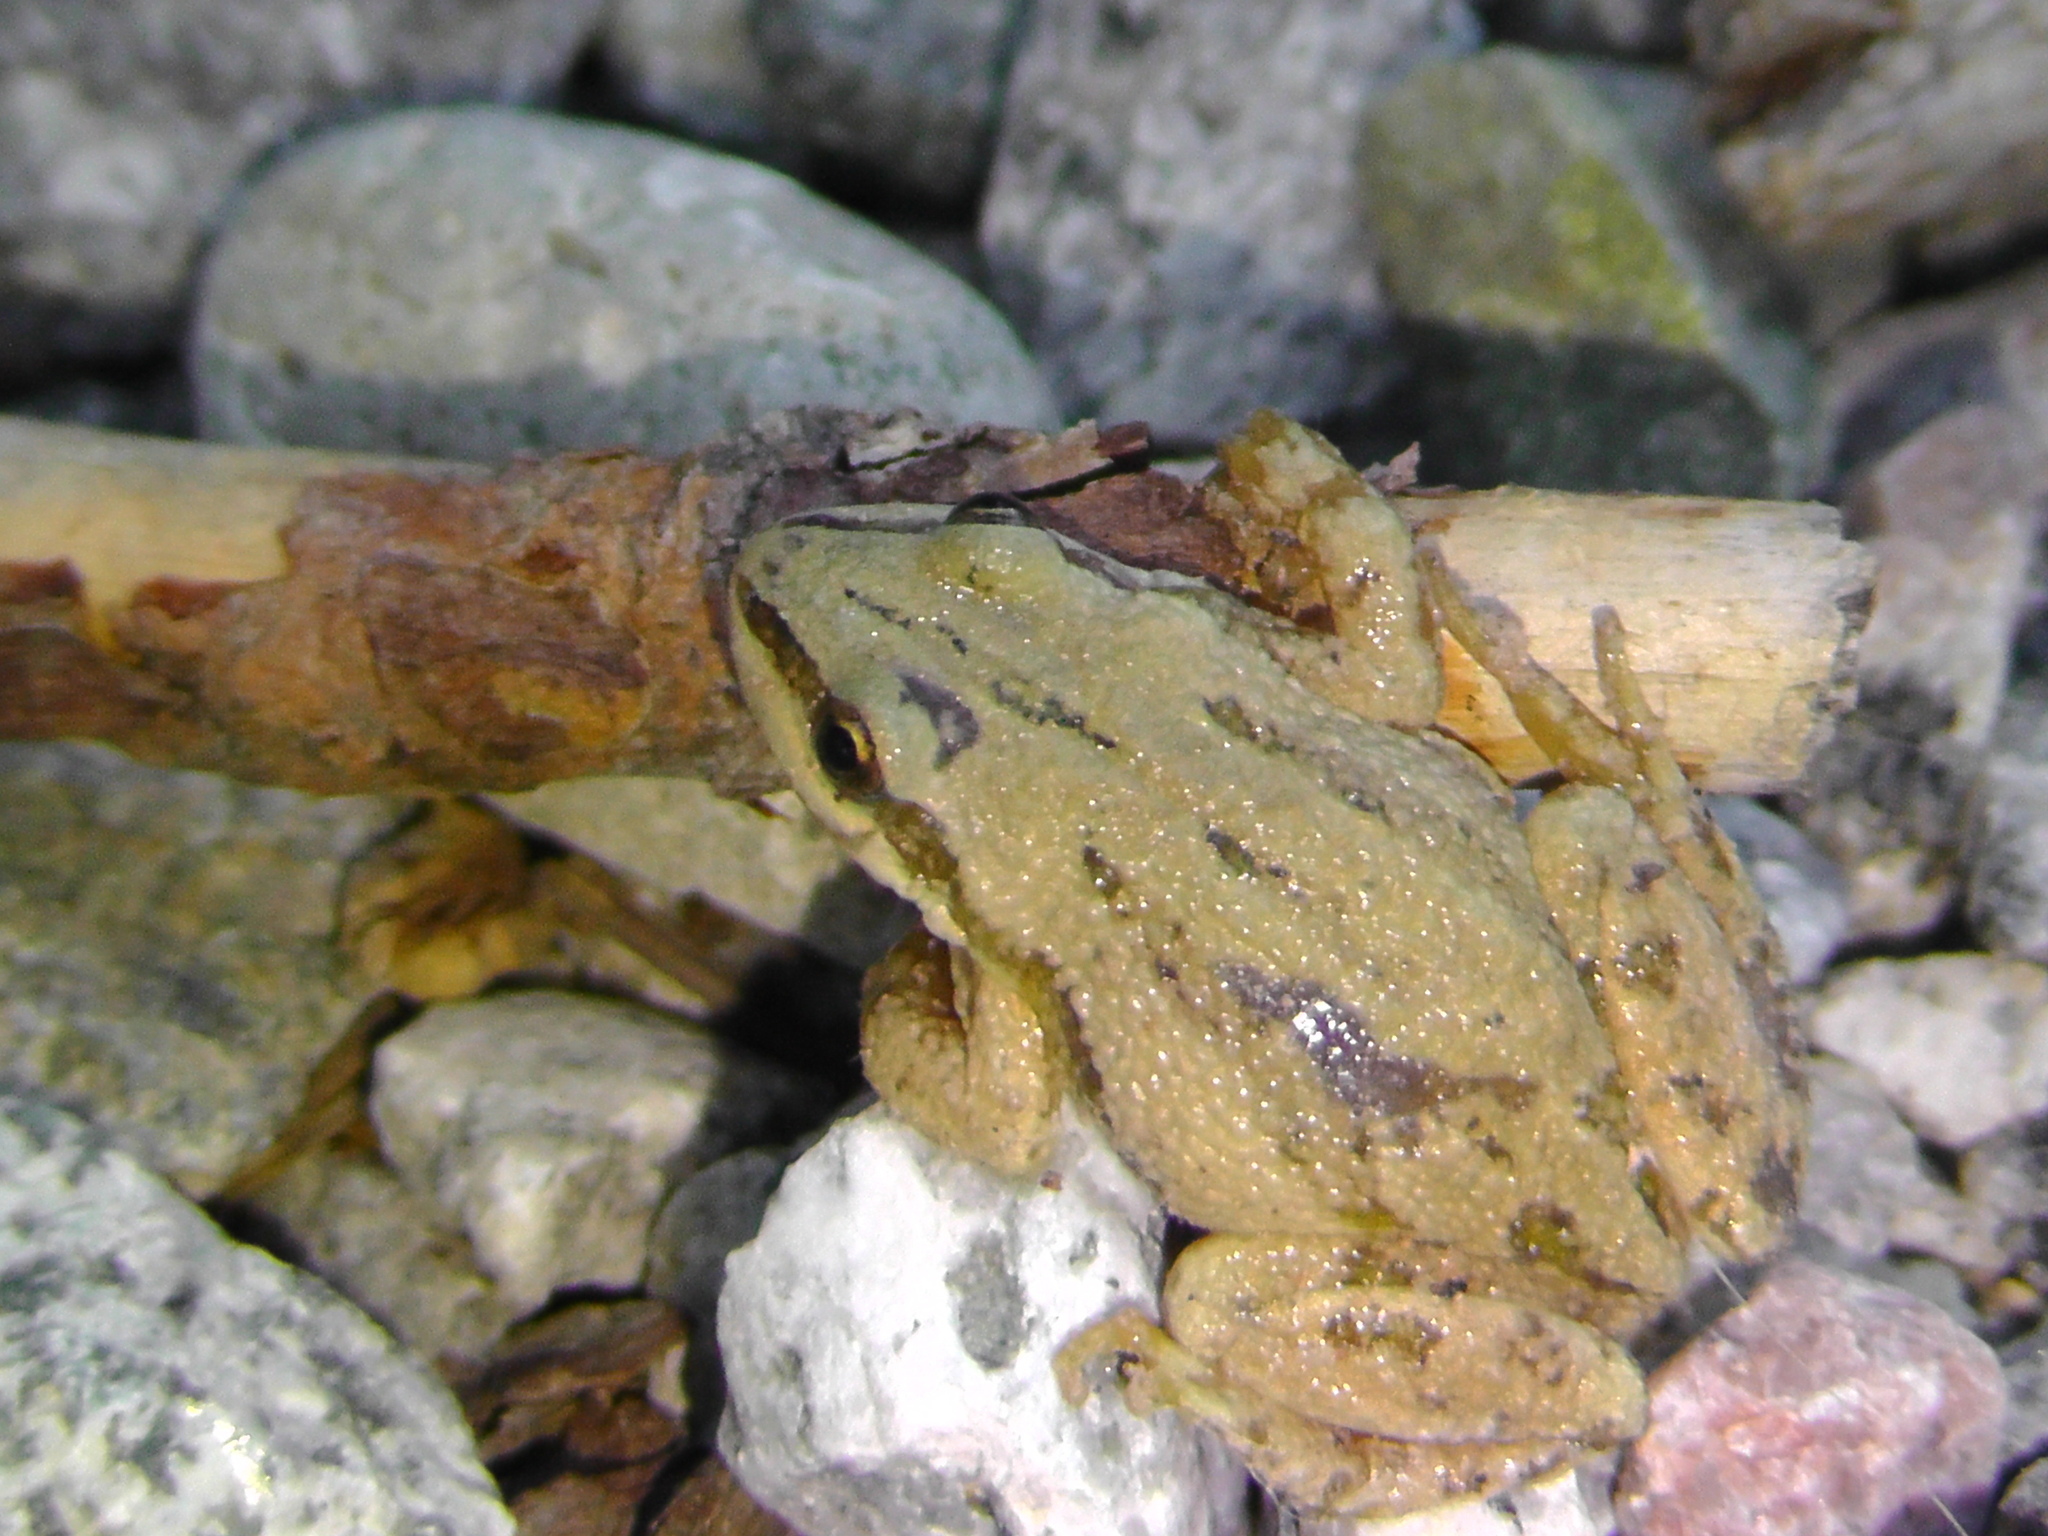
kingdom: Animalia
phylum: Chordata
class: Amphibia
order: Anura
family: Hylidae
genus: Pseudacris
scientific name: Pseudacris maculata
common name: Boreal chorus frog
